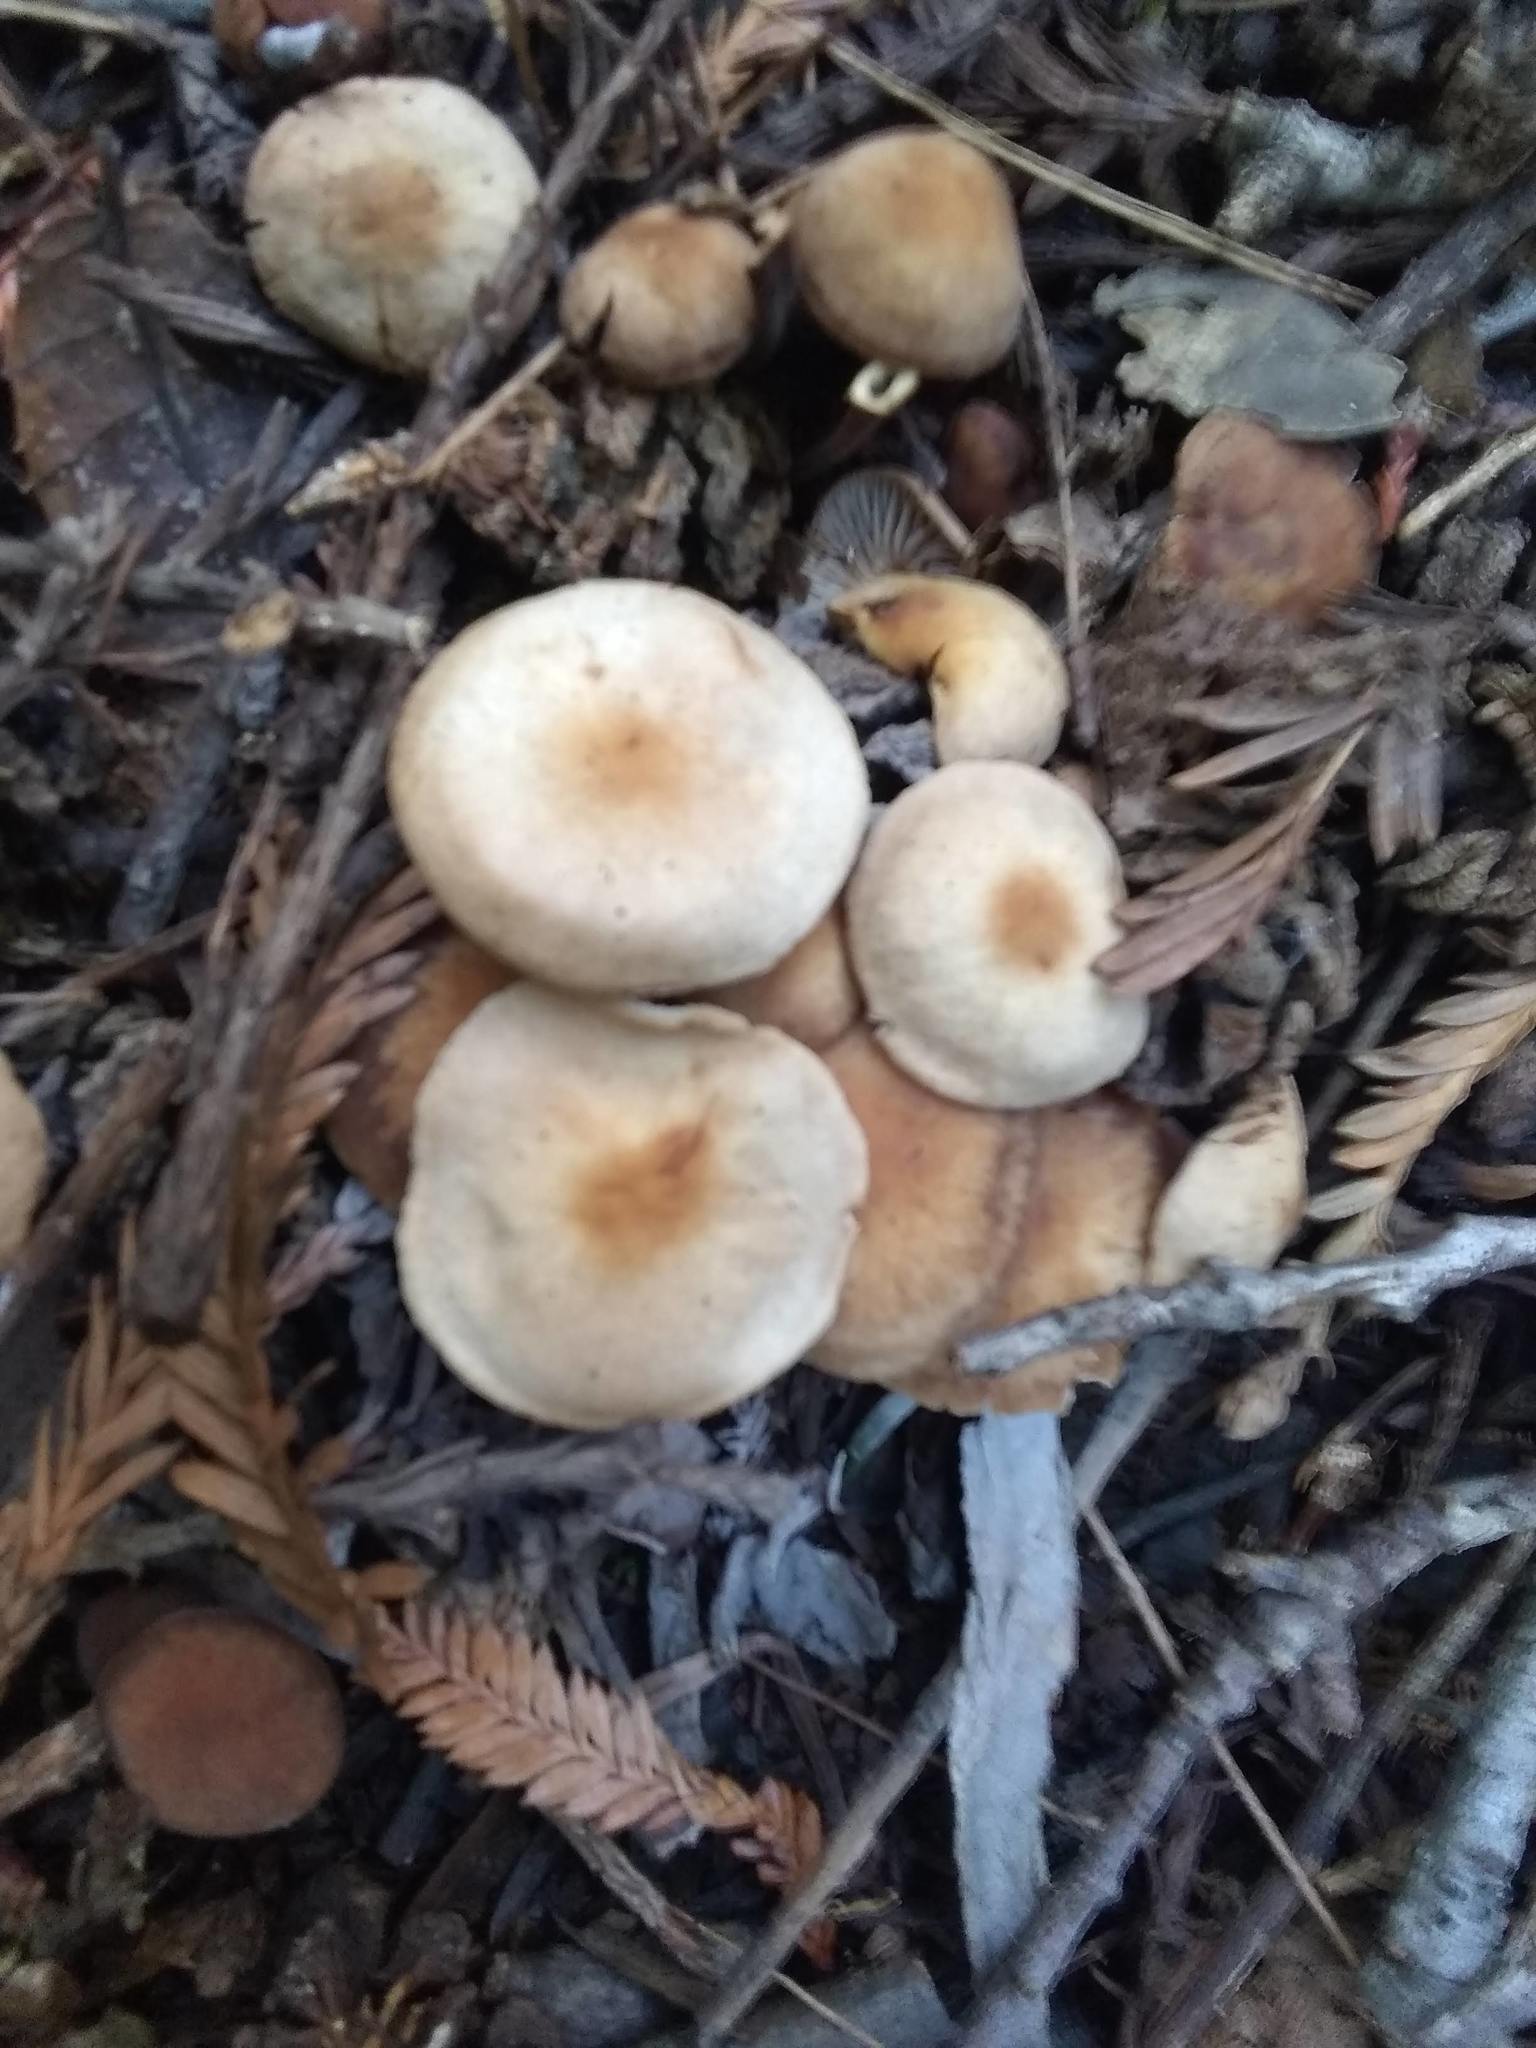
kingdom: Fungi
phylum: Basidiomycota
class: Agaricomycetes
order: Agaricales
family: Omphalotaceae
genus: Gymnopus
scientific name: Gymnopus brassicolens
